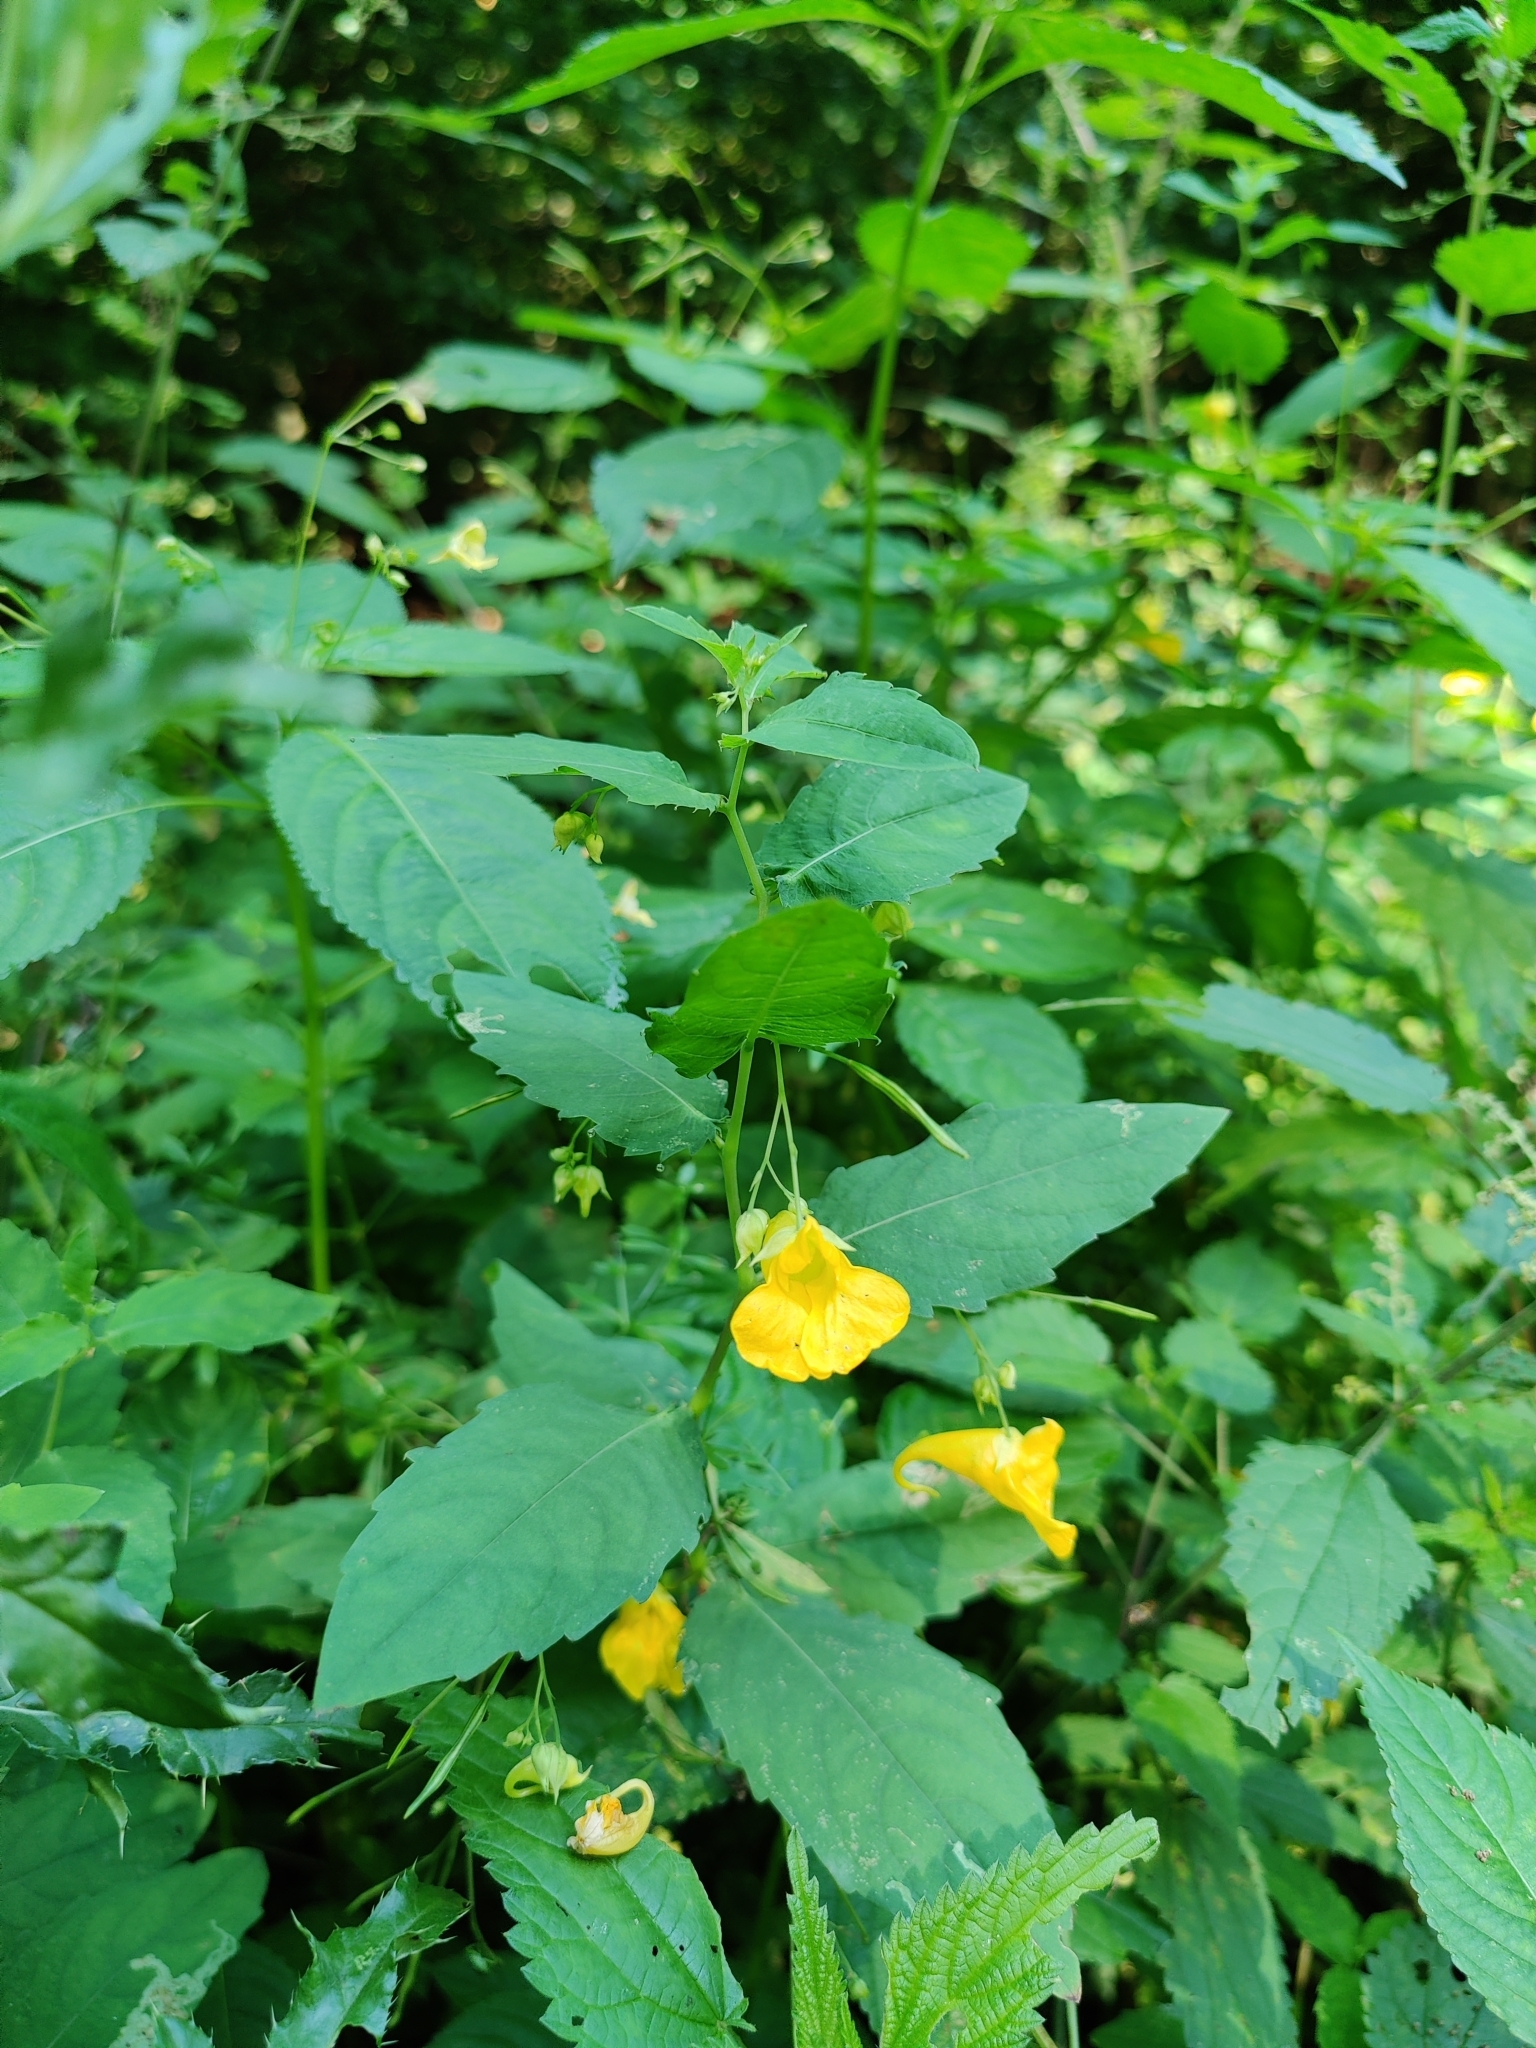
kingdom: Plantae
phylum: Tracheophyta
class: Magnoliopsida
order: Ericales
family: Balsaminaceae
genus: Impatiens
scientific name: Impatiens noli-tangere
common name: Touch-me-not balsam
